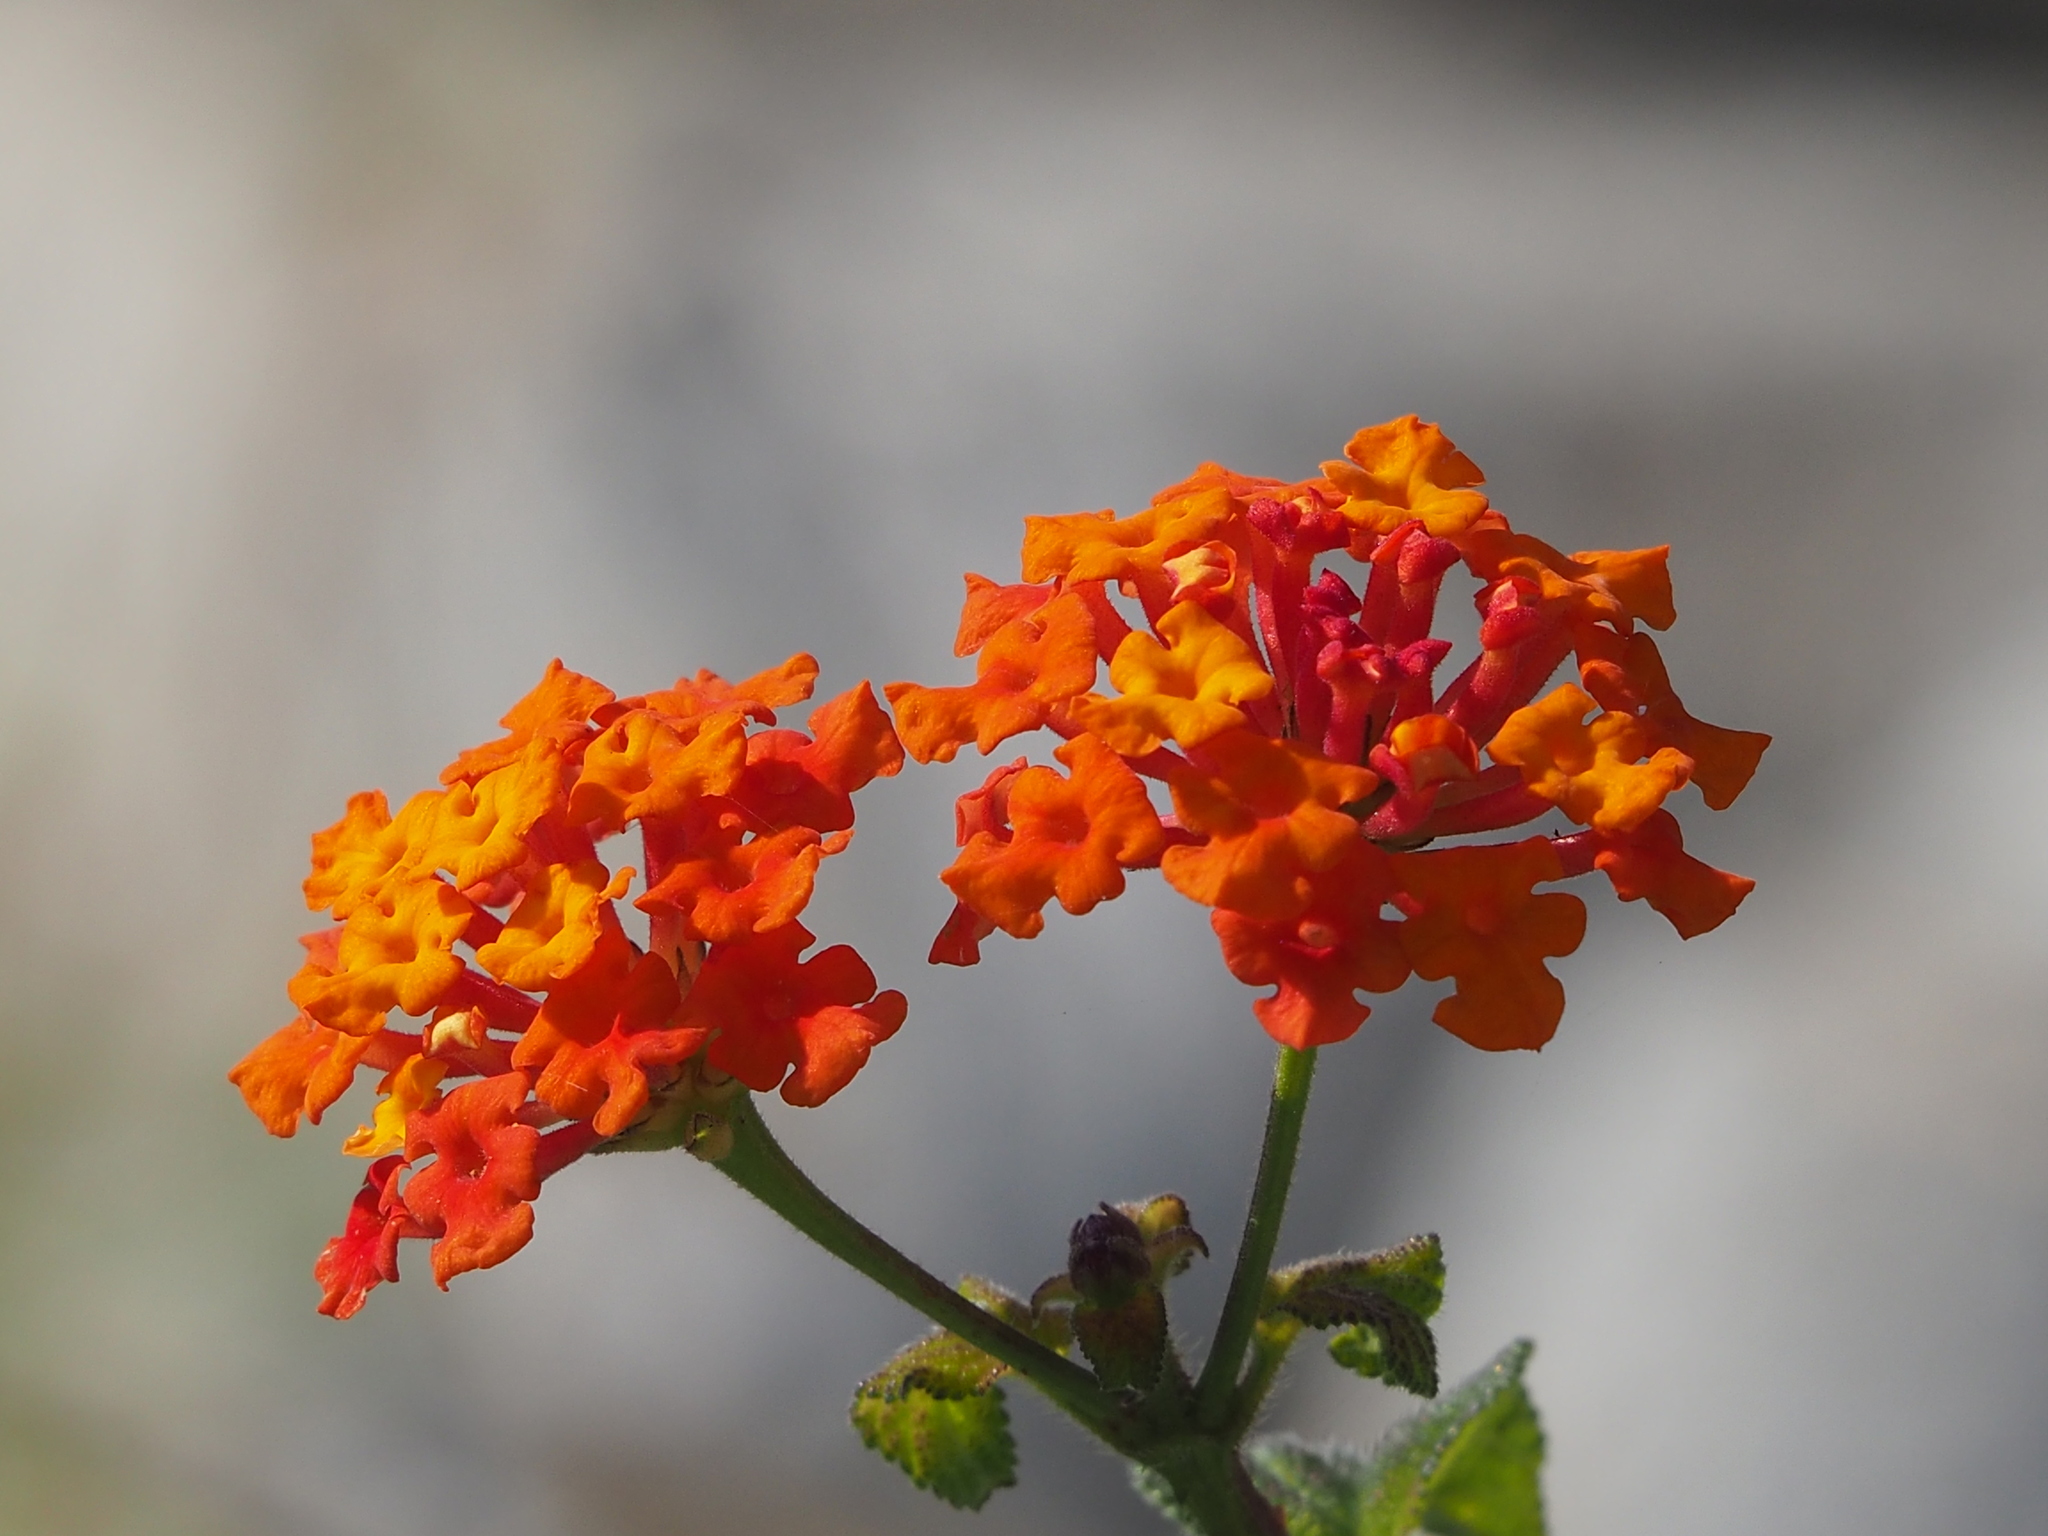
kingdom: Plantae
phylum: Tracheophyta
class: Magnoliopsida
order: Lamiales
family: Verbenaceae
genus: Lantana
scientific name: Lantana camara
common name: Lantana
